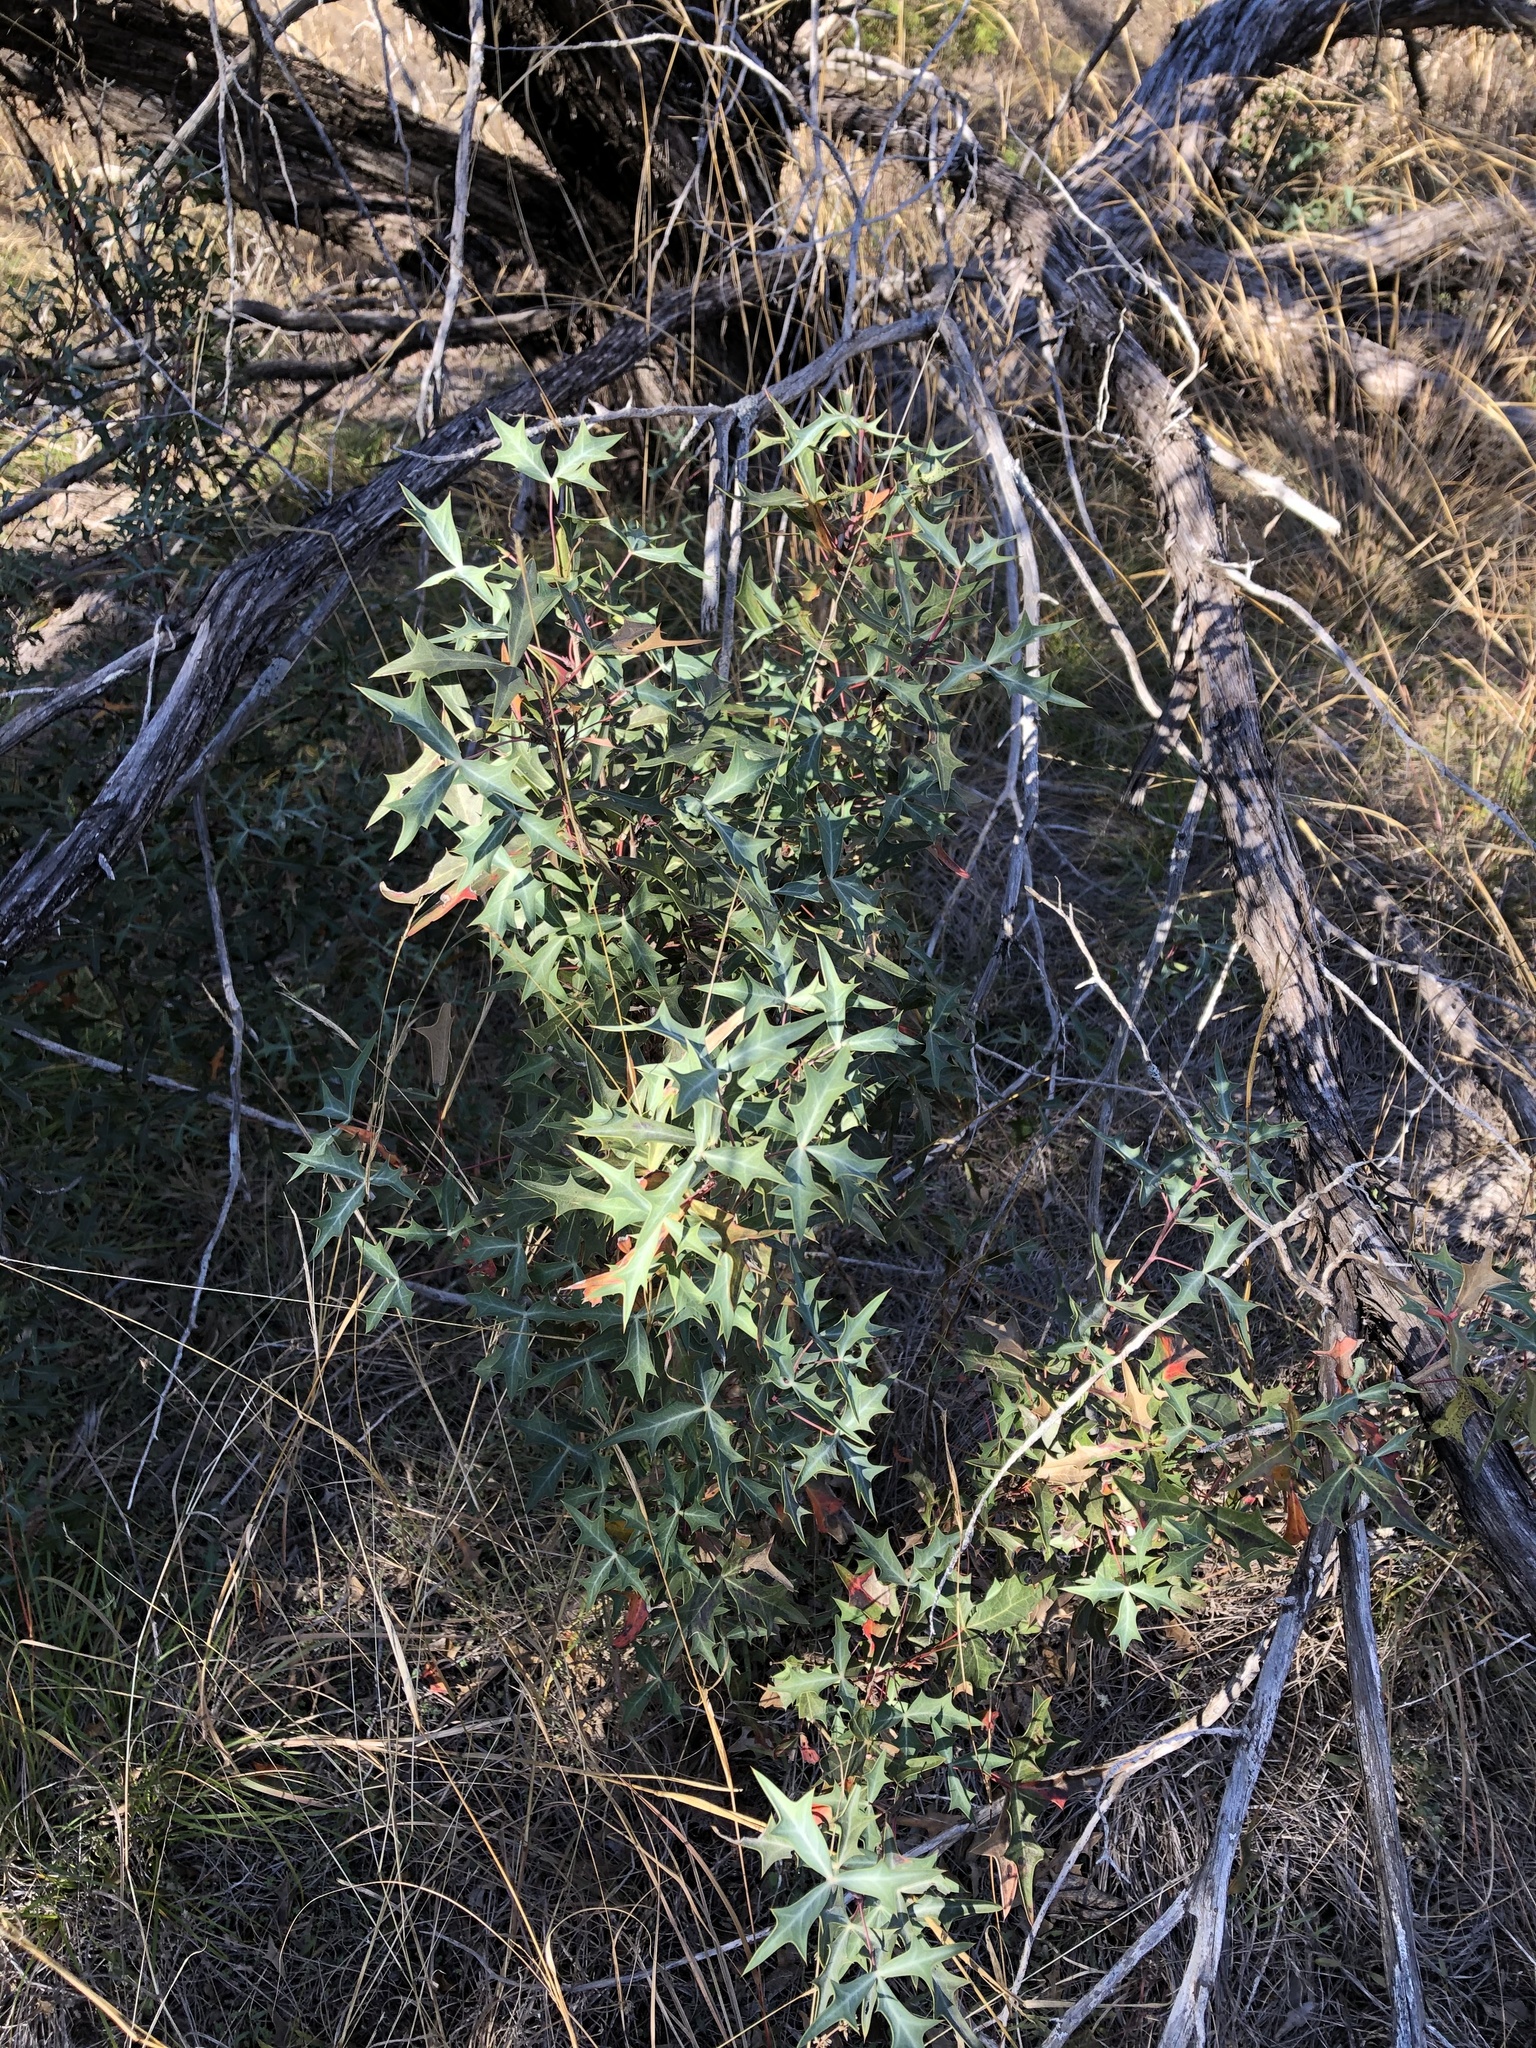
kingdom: Plantae
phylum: Tracheophyta
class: Magnoliopsida
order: Ranunculales
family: Berberidaceae
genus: Alloberberis
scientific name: Alloberberis trifoliolata
